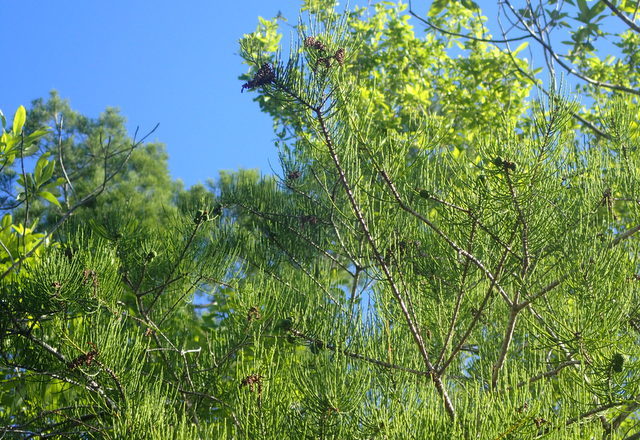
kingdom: Plantae
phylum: Tracheophyta
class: Pinopsida
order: Pinales
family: Cupressaceae
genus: Taxodium
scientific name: Taxodium distichum
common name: Bald cypress
